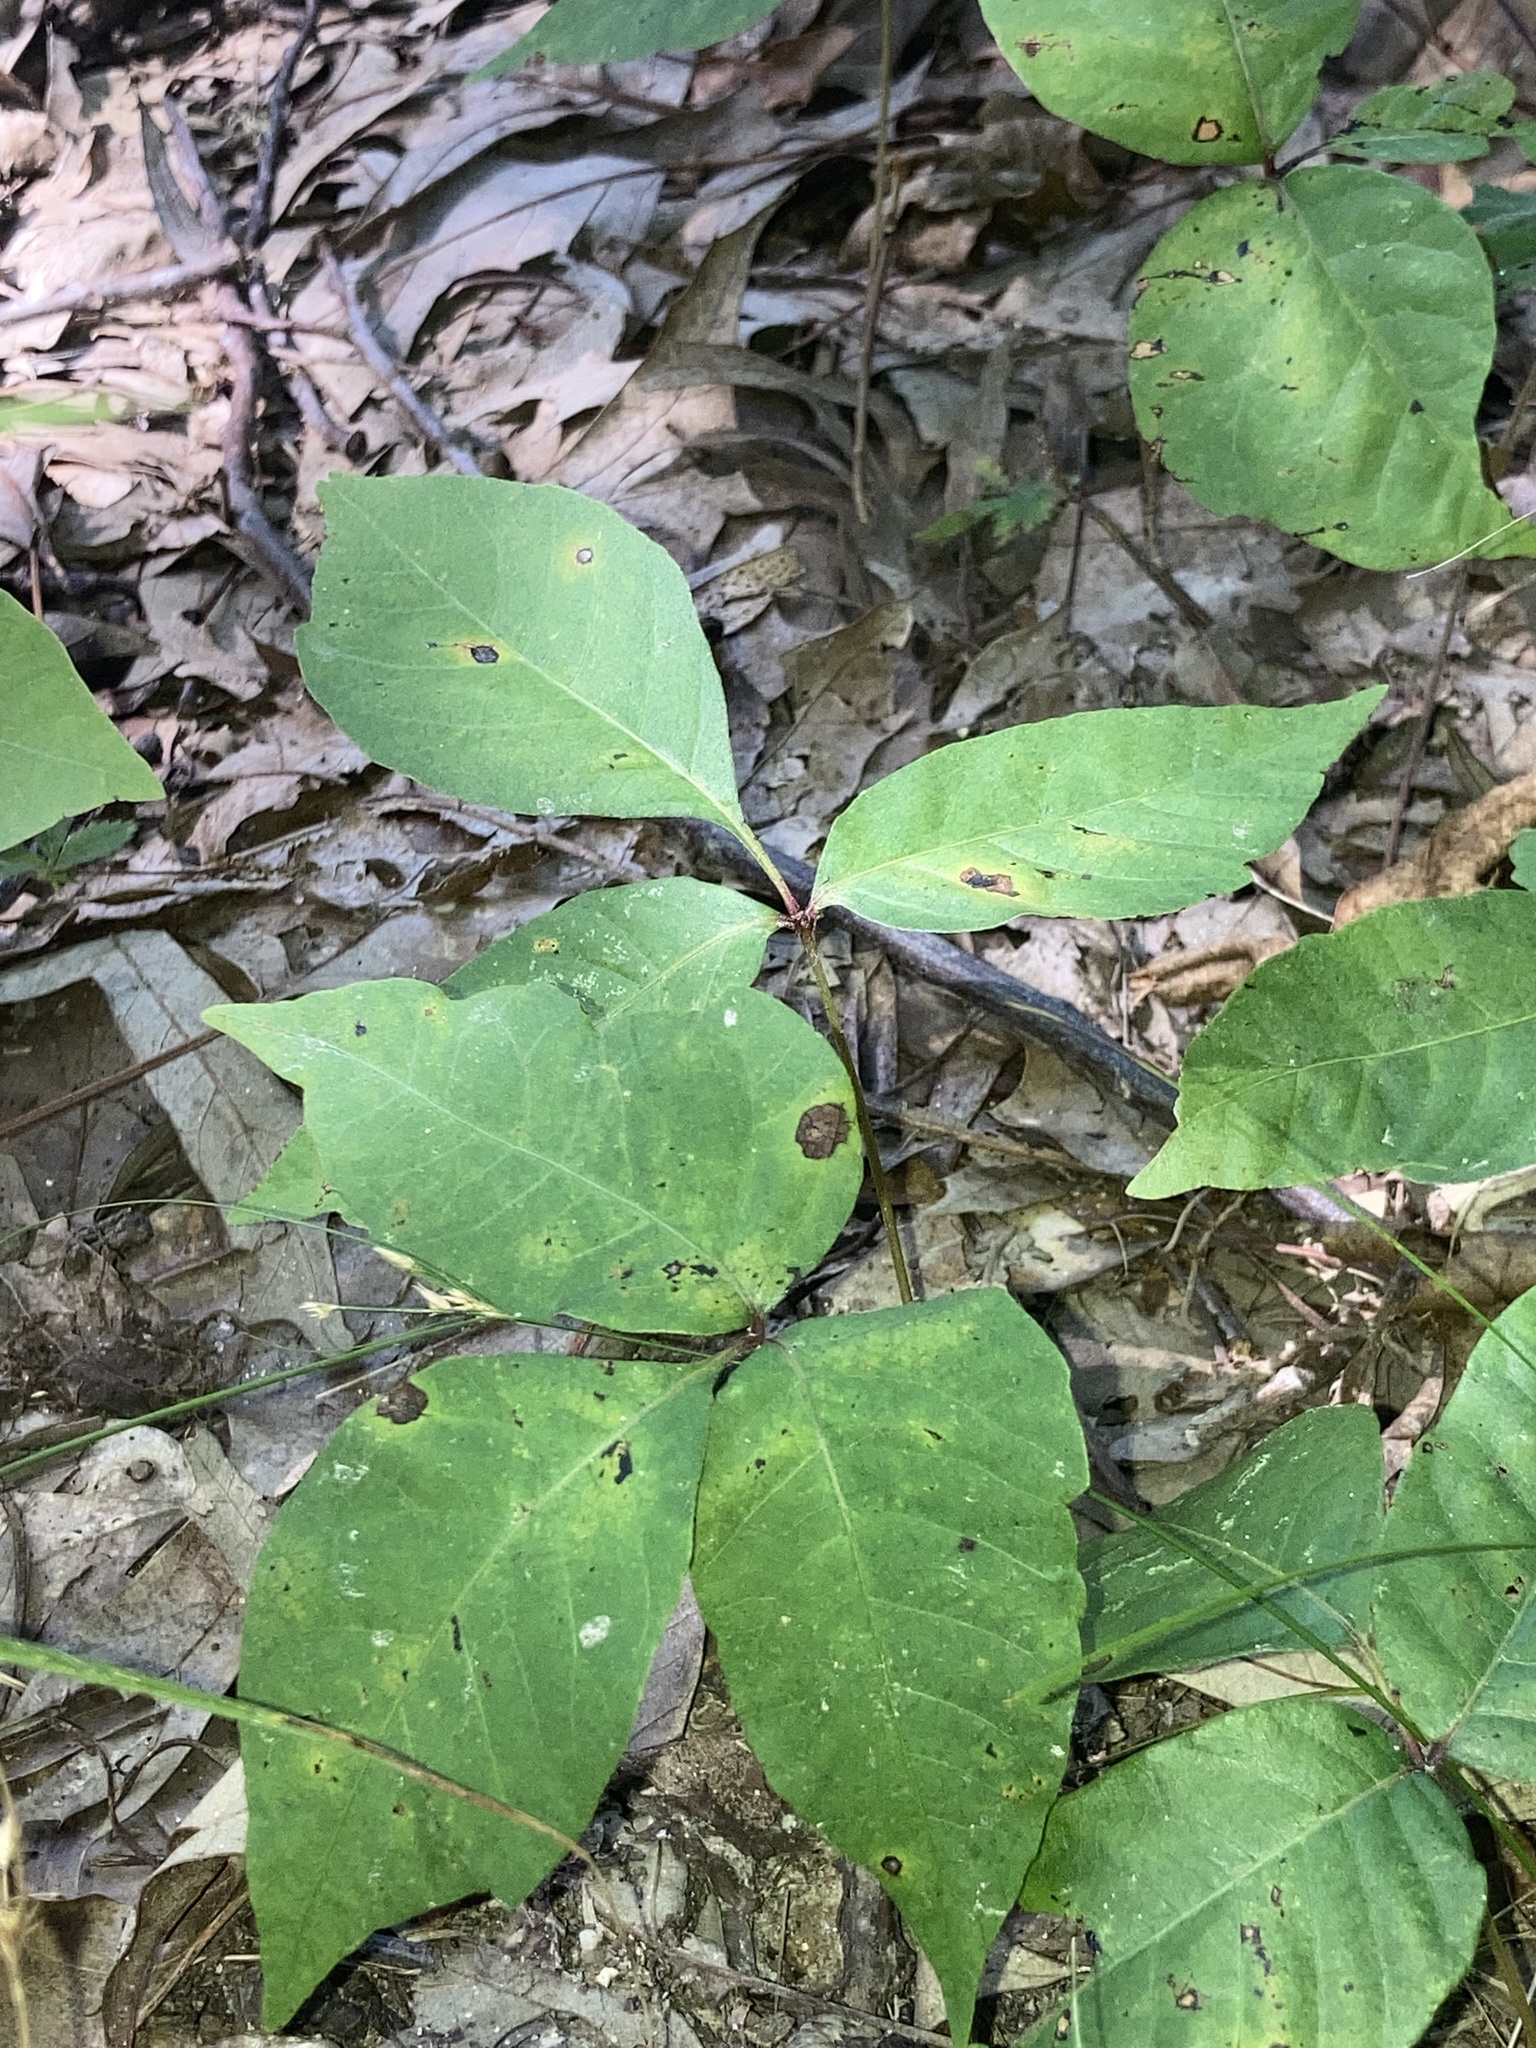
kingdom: Plantae
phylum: Tracheophyta
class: Magnoliopsida
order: Sapindales
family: Anacardiaceae
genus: Toxicodendron
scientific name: Toxicodendron radicans
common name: Poison ivy
